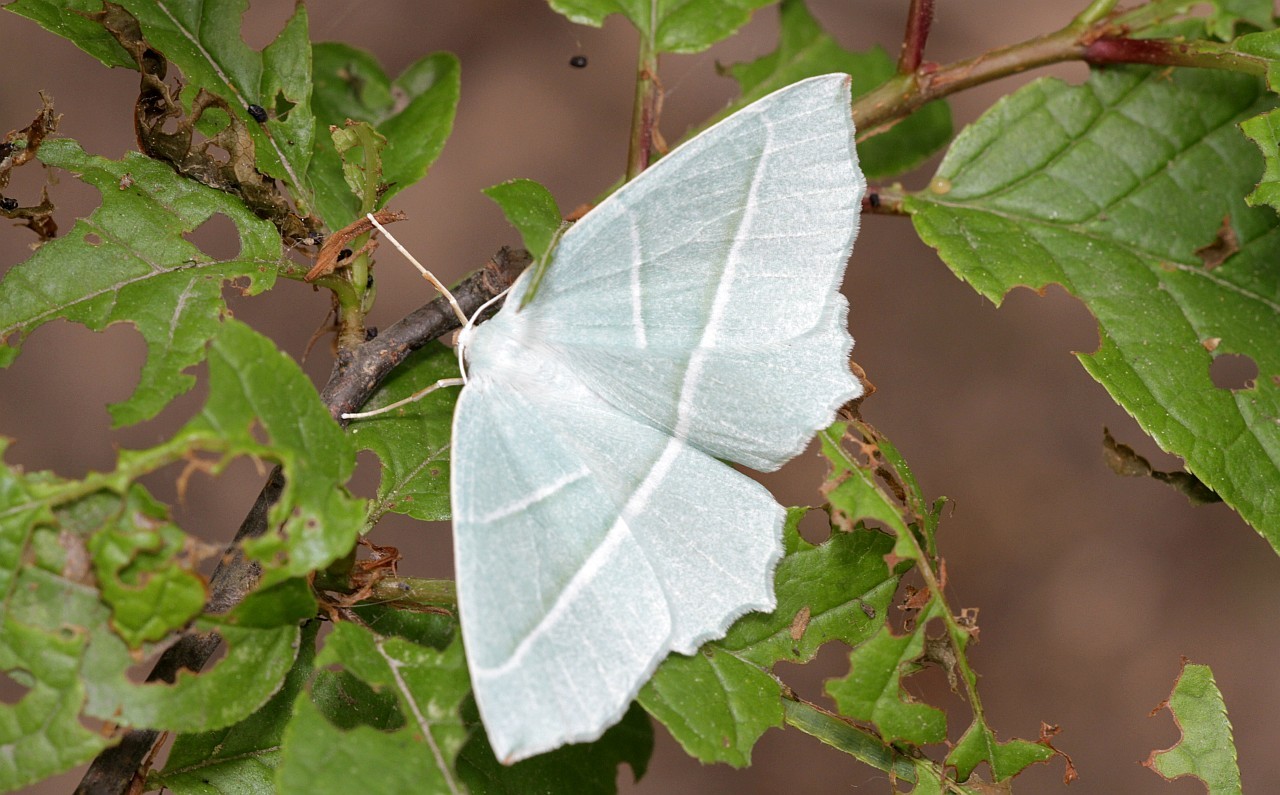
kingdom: Animalia
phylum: Arthropoda
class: Insecta
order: Lepidoptera
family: Geometridae
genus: Campaea
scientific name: Campaea margaritaria
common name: Light emerald
